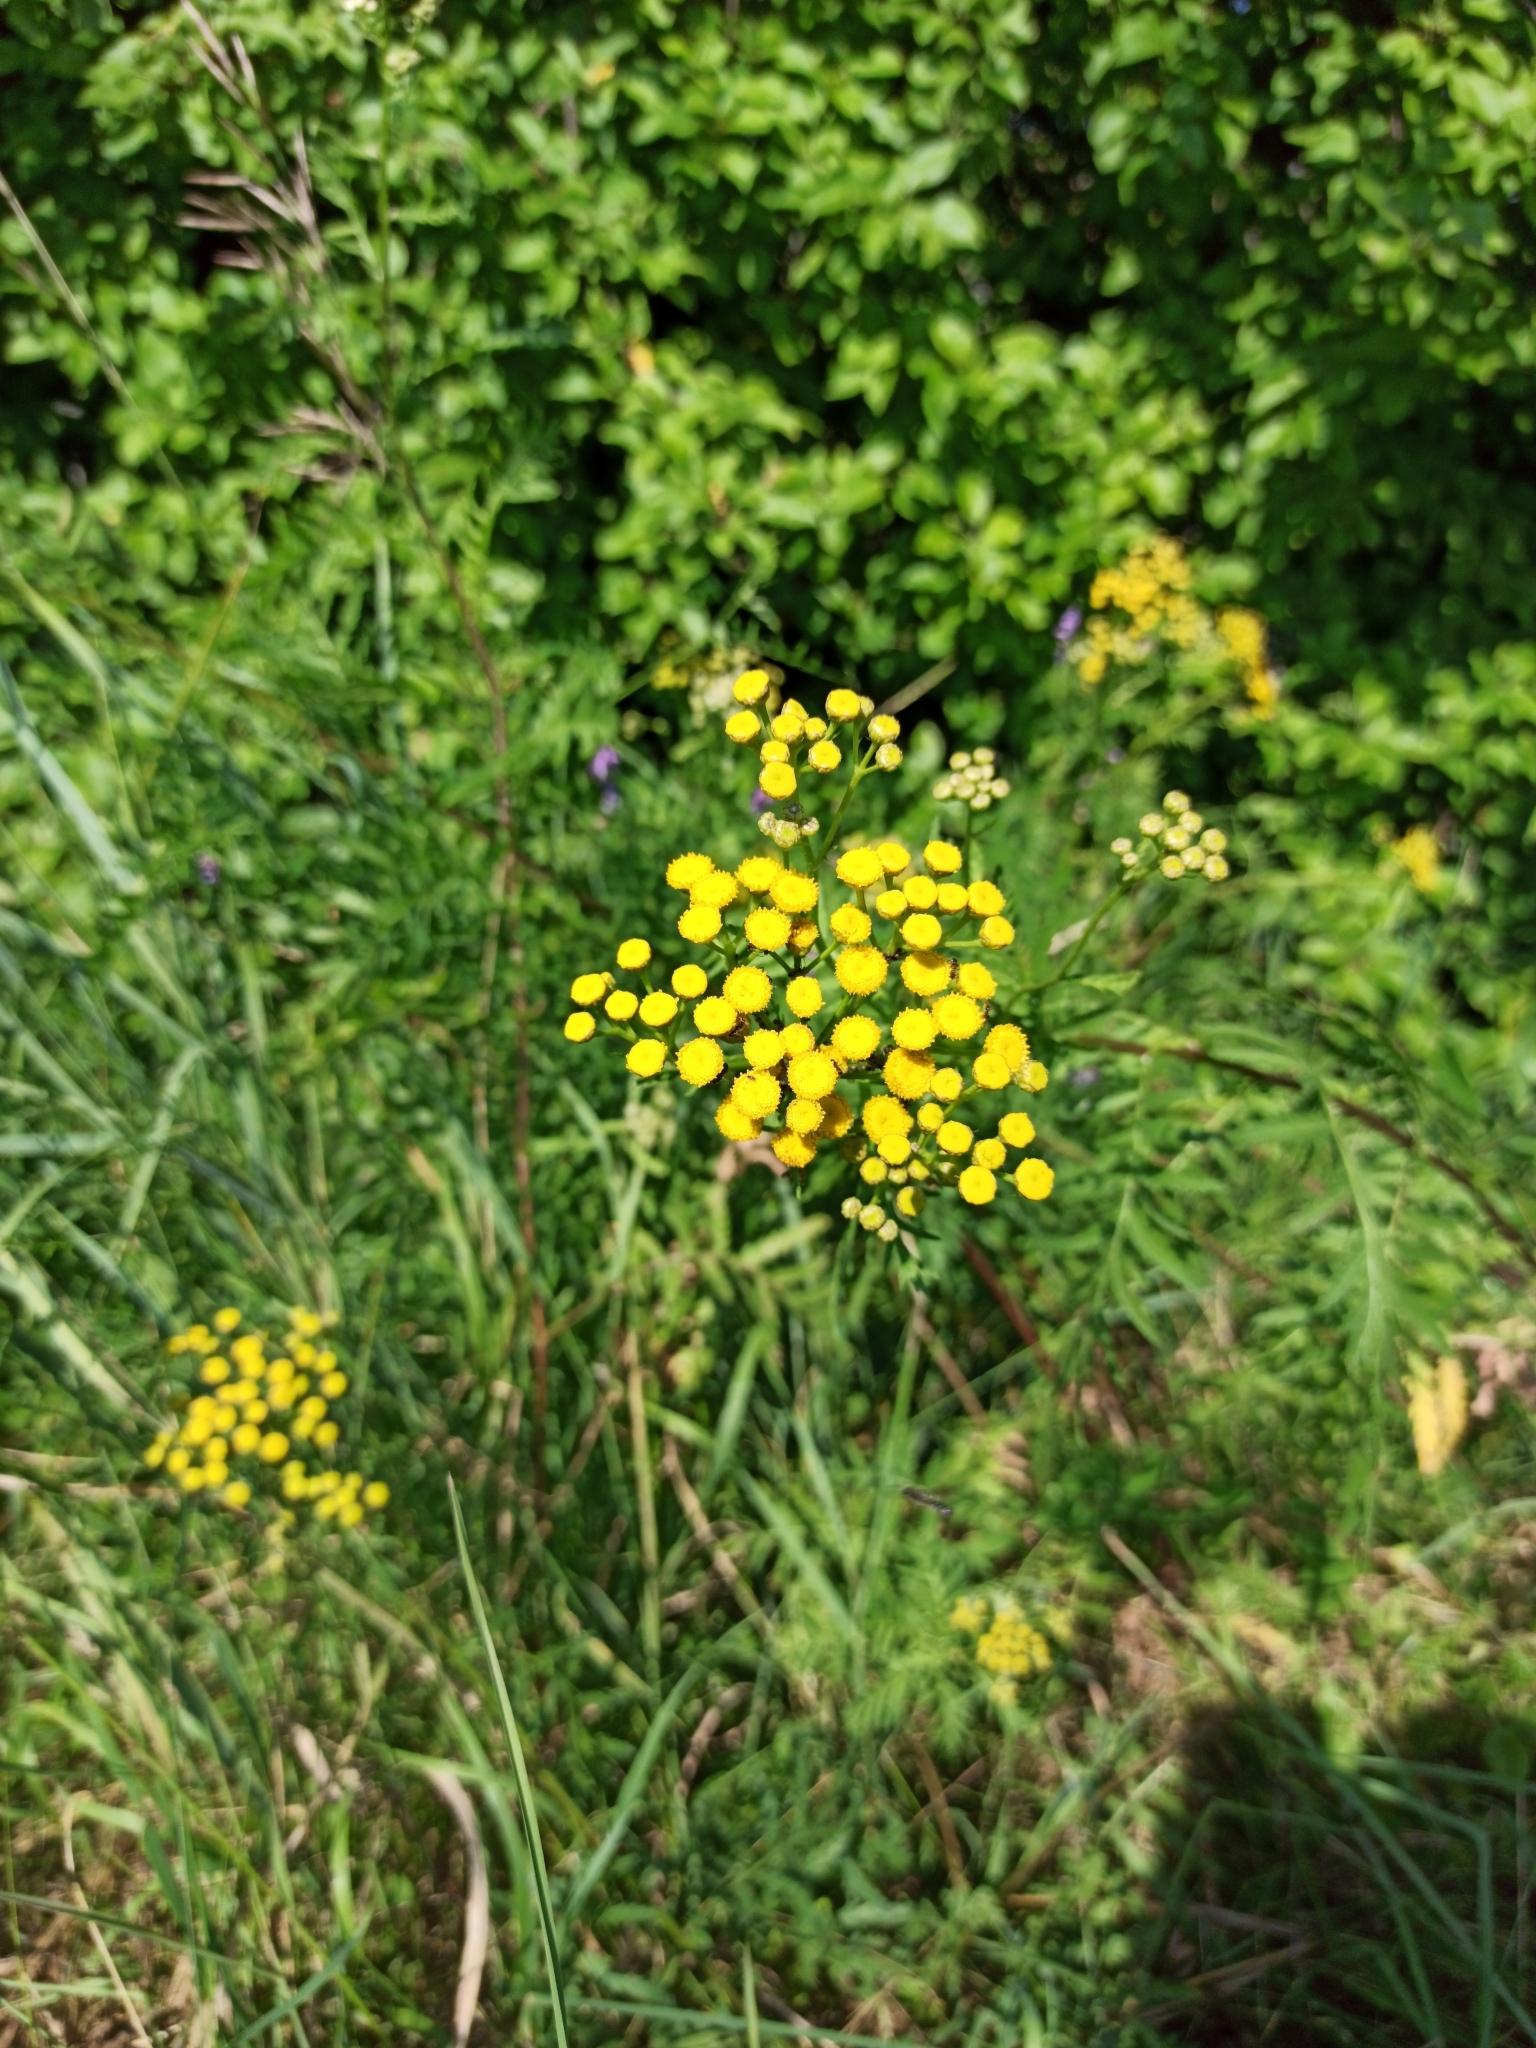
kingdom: Plantae
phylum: Tracheophyta
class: Magnoliopsida
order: Asterales
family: Asteraceae
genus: Tanacetum
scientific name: Tanacetum vulgare
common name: Common tansy
